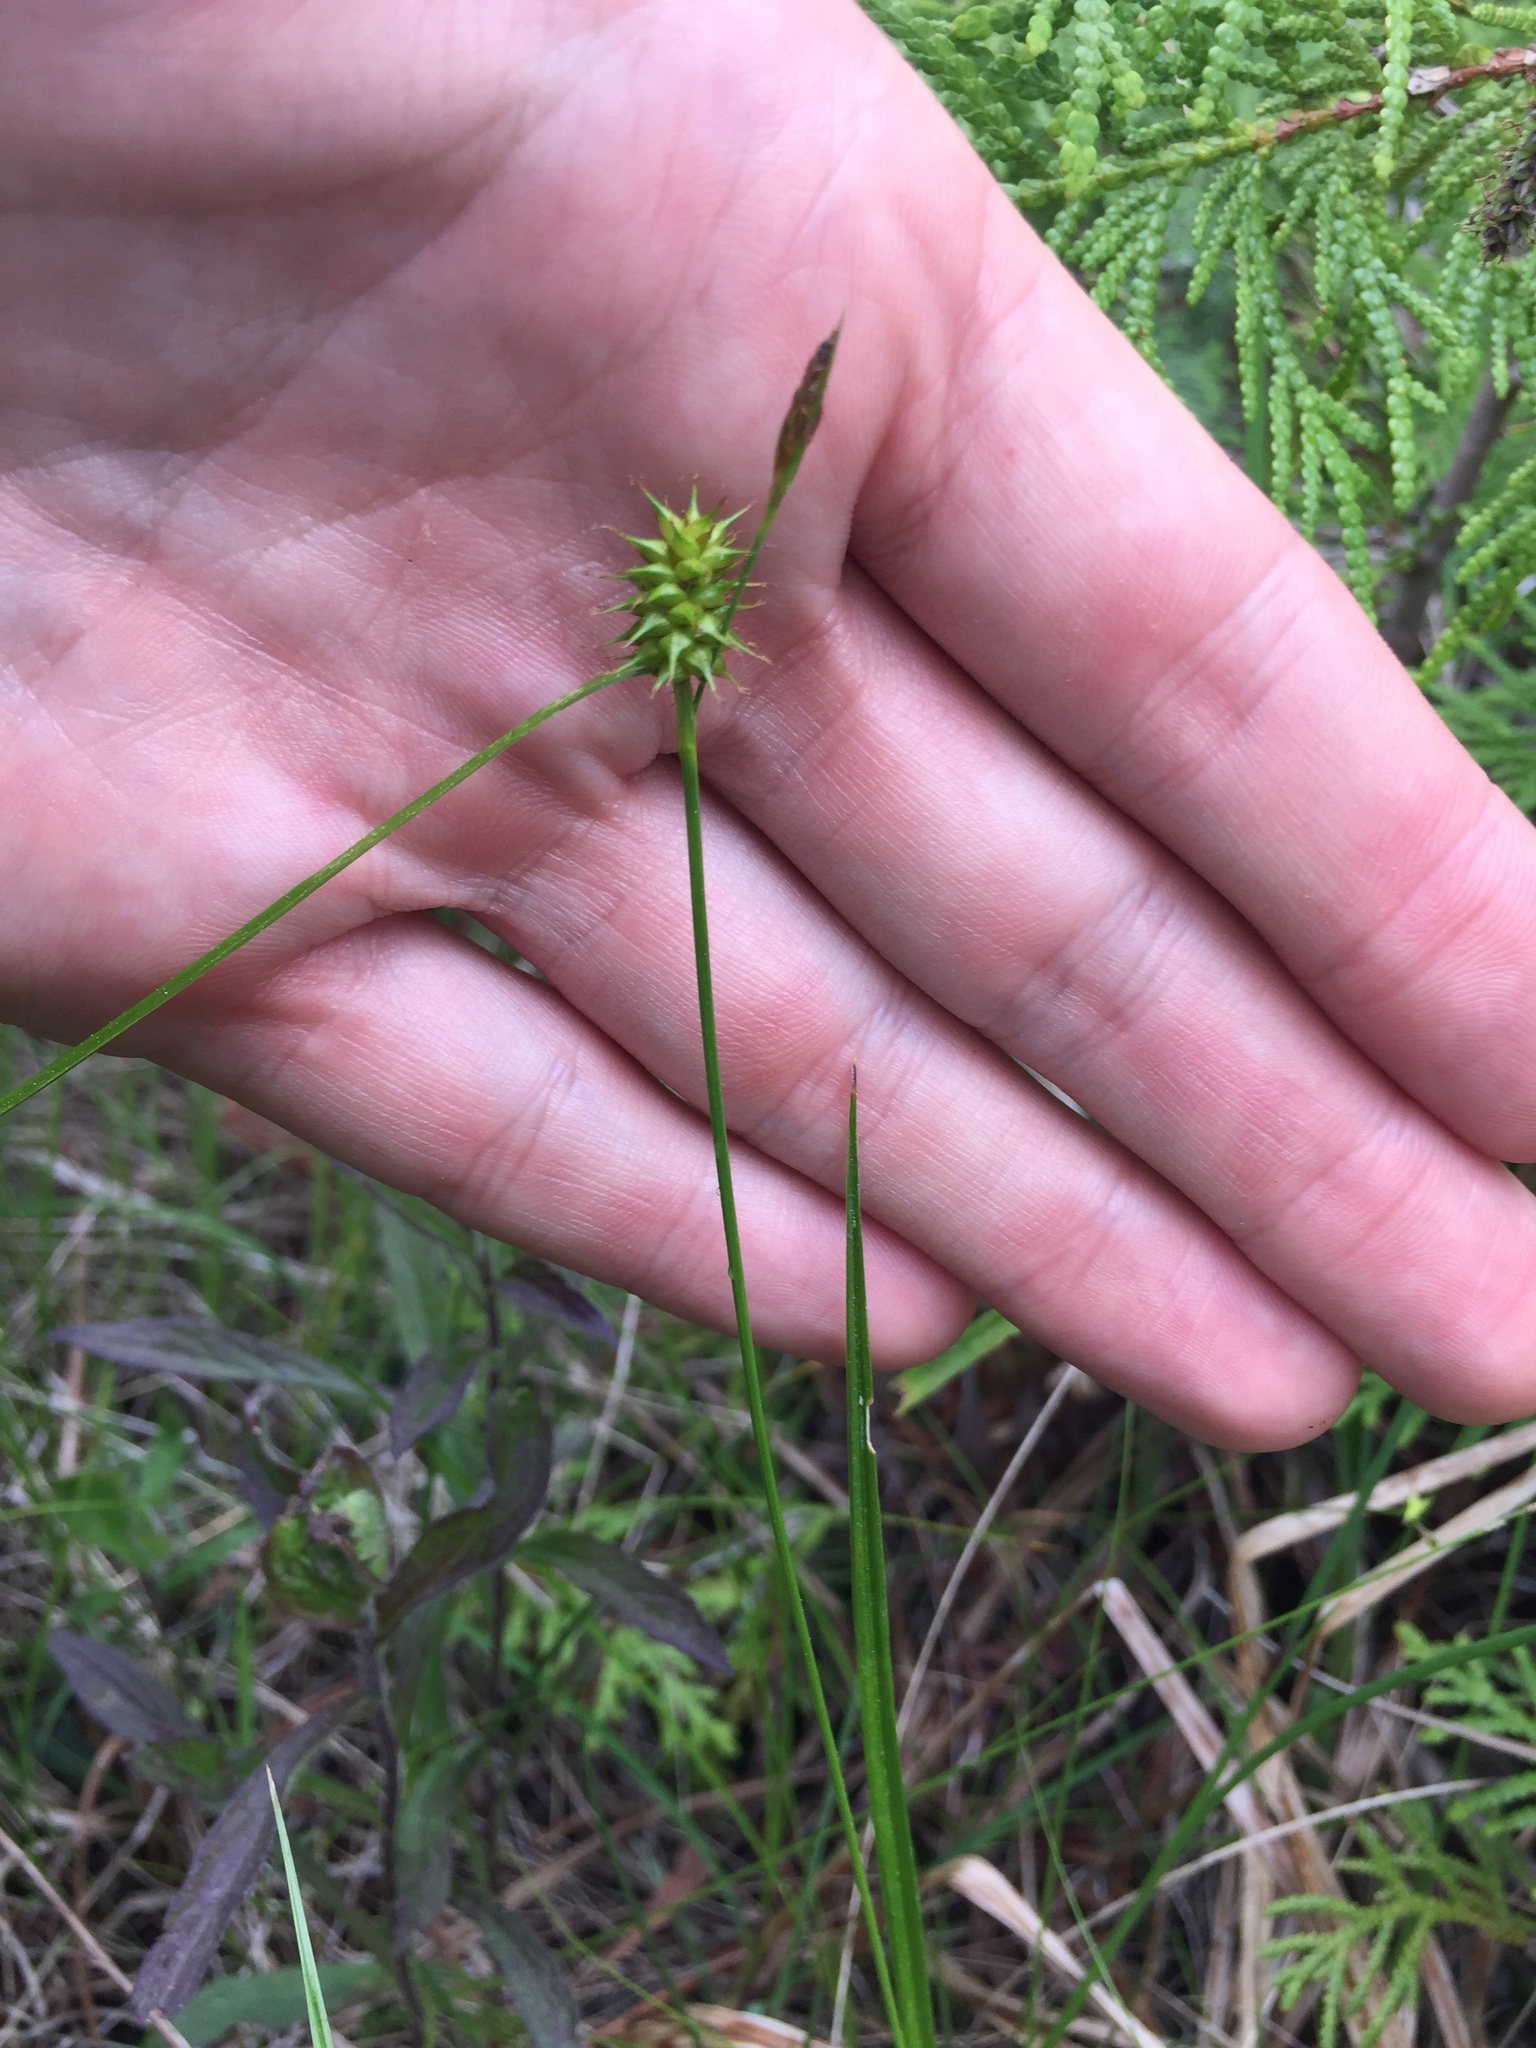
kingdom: Plantae
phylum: Tracheophyta
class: Liliopsida
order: Poales
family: Cyperaceae
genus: Carex
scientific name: Carex flava
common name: Large yellow-sedge
